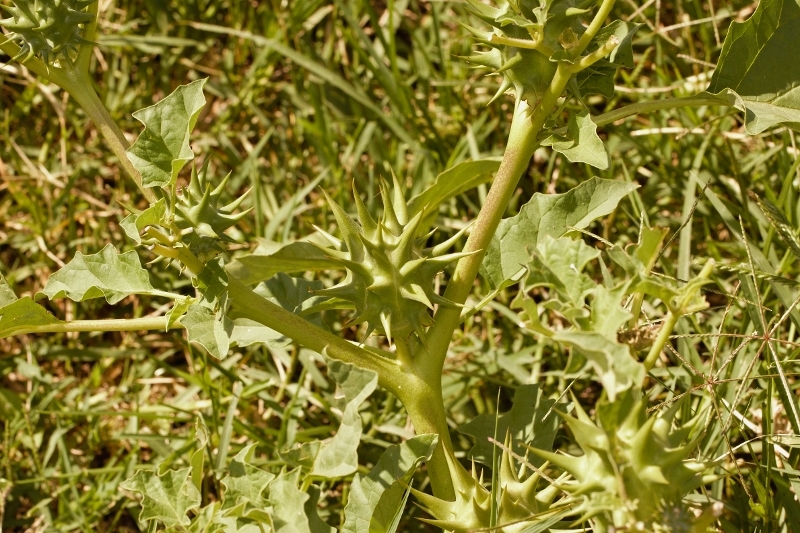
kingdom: Plantae
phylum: Tracheophyta
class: Magnoliopsida
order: Solanales
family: Solanaceae
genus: Datura
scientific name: Datura ferox
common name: Angel's-trumpets
